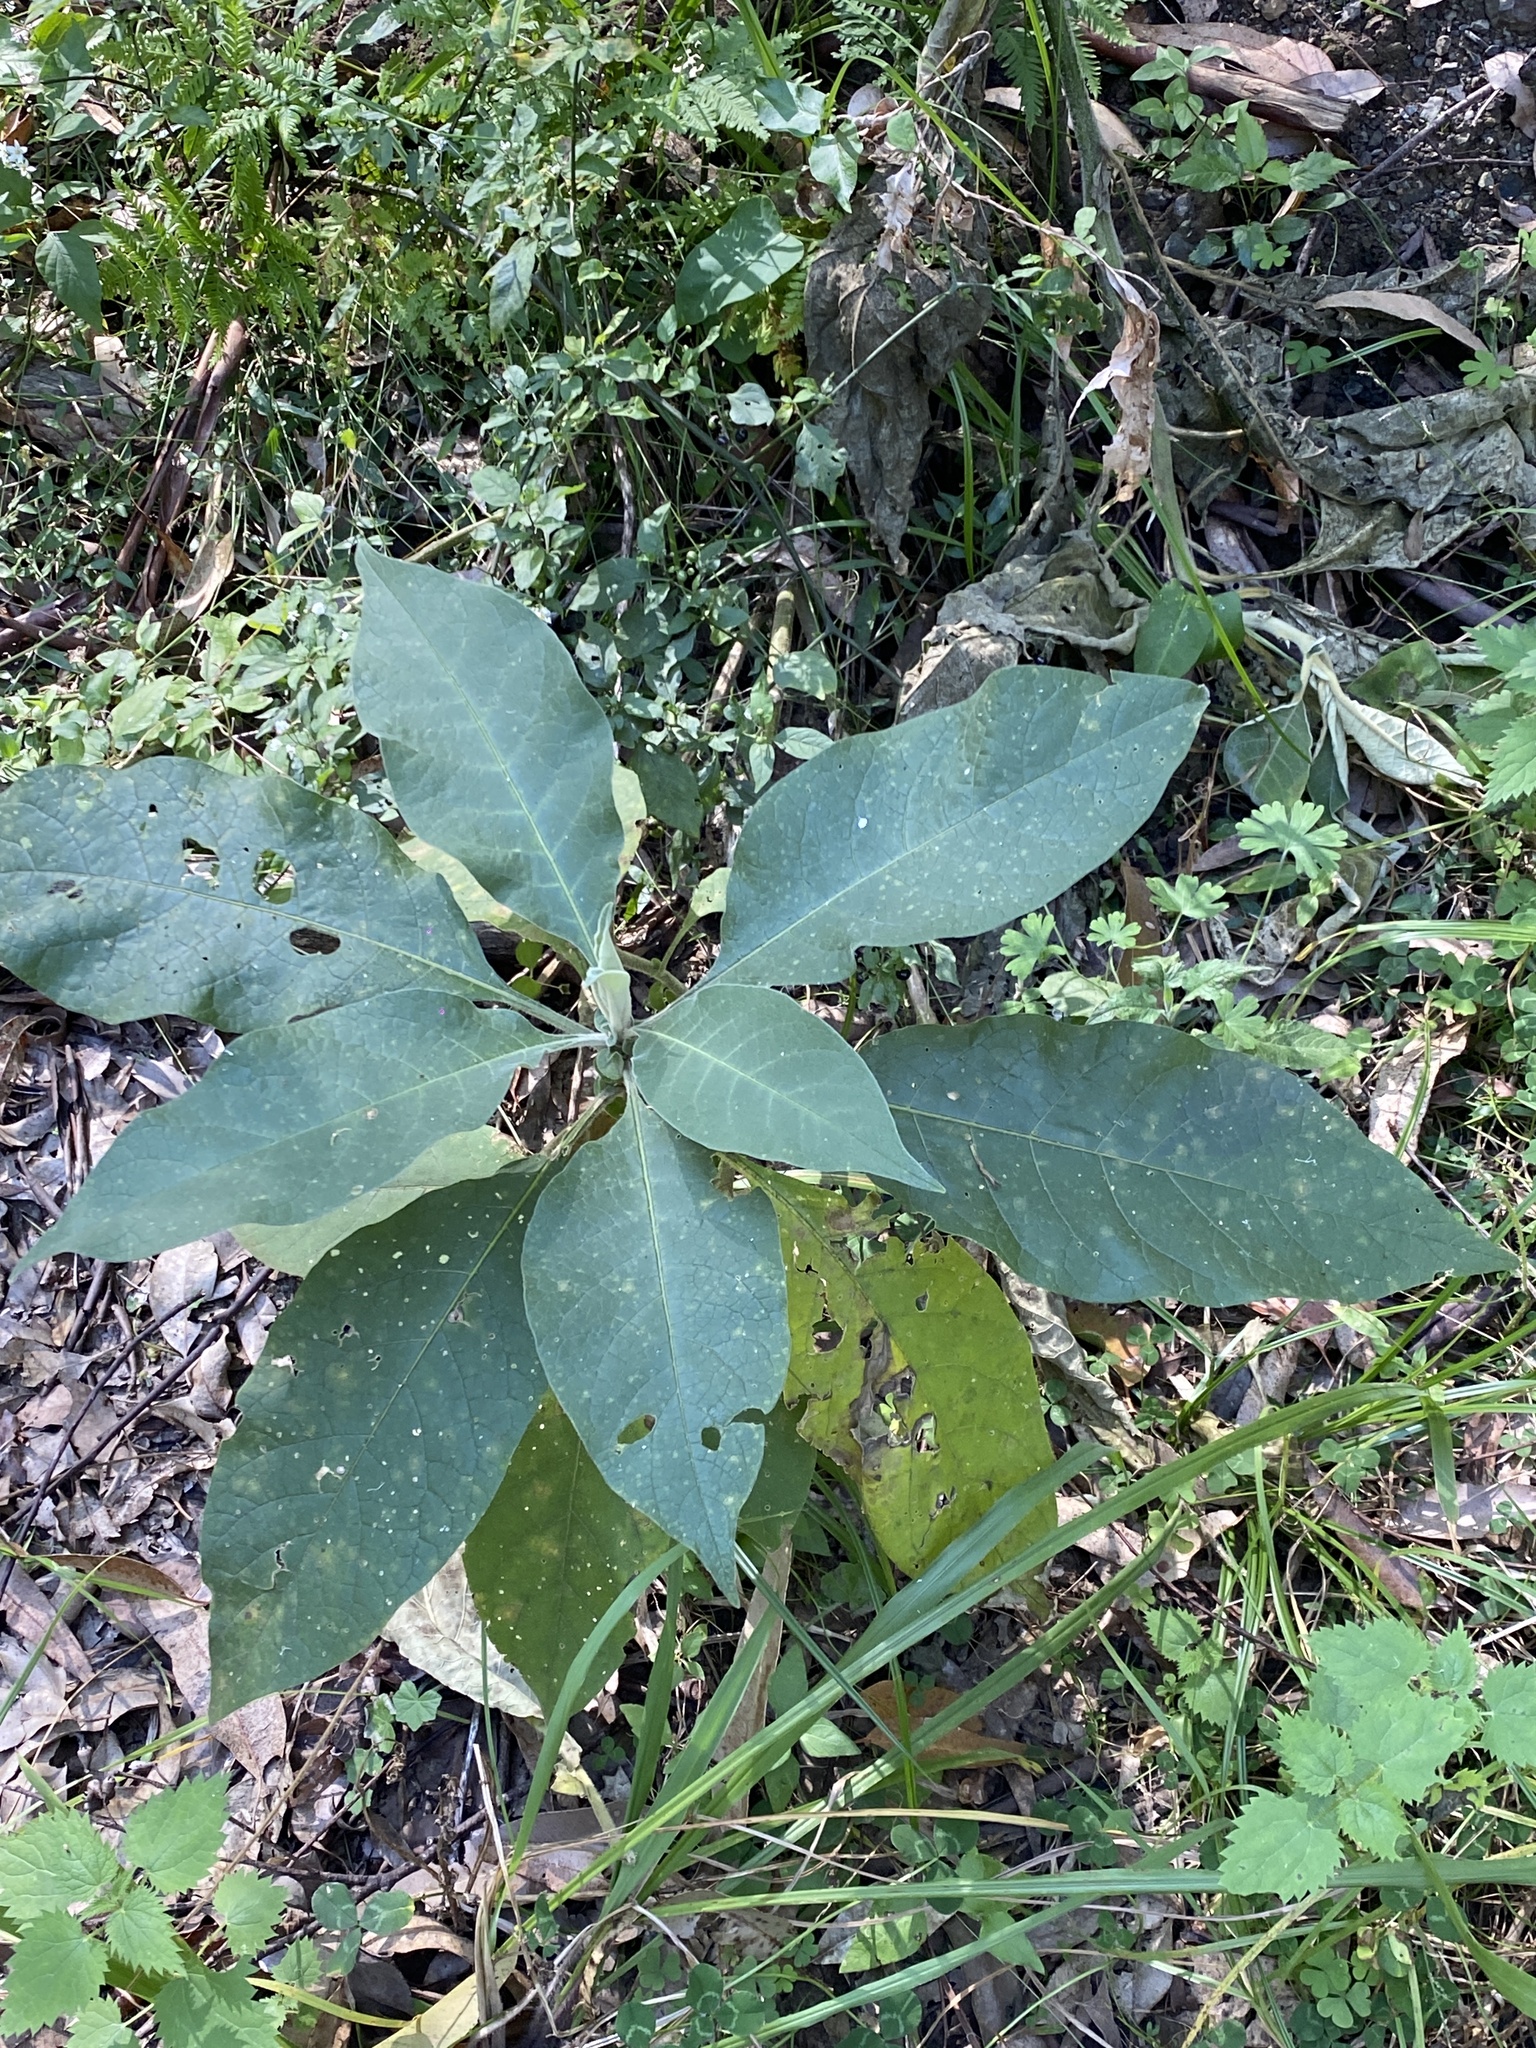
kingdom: Plantae
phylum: Tracheophyta
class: Magnoliopsida
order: Solanales
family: Solanaceae
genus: Solanum
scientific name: Solanum mauritianum
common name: Earleaf nightshade
